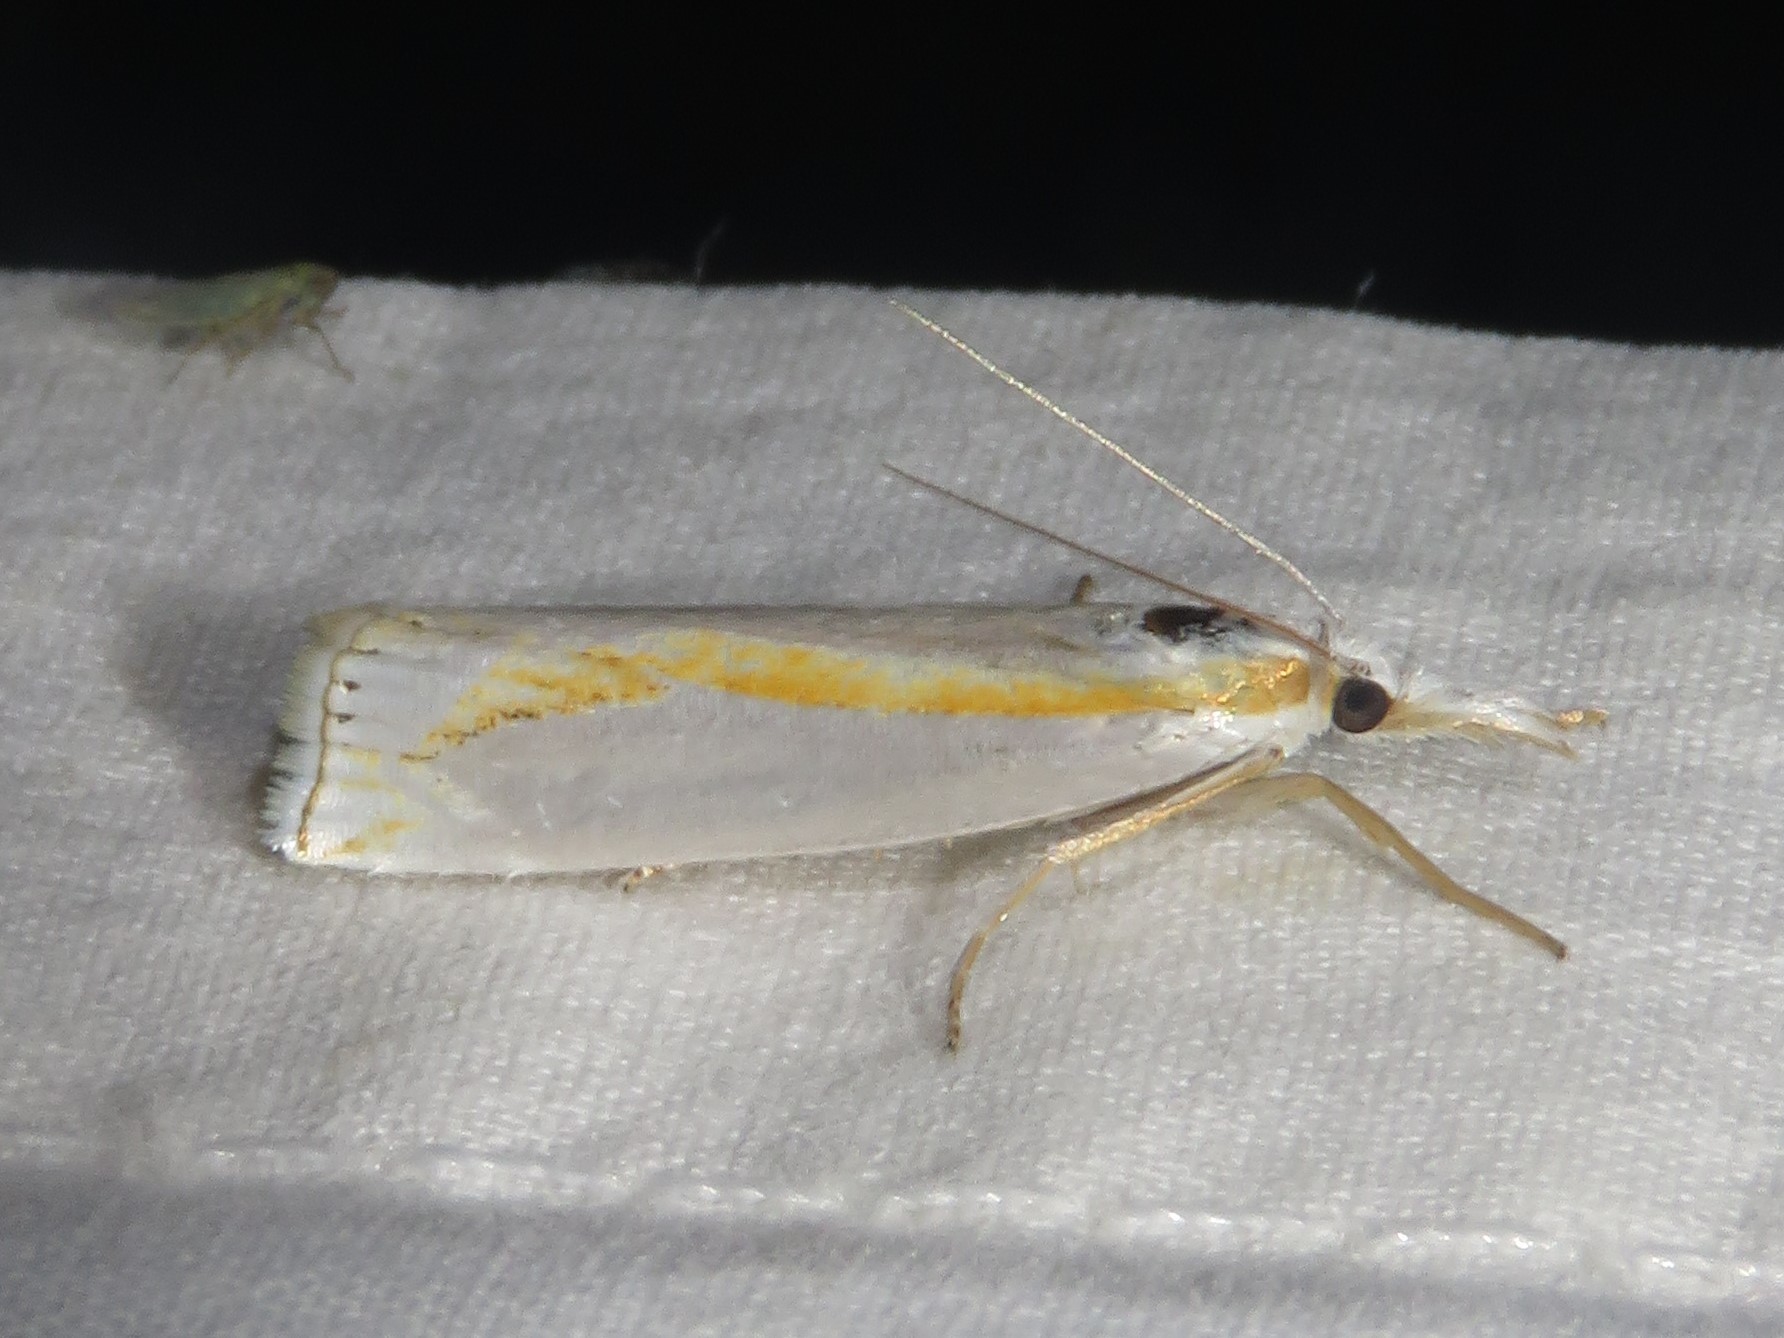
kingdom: Animalia
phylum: Arthropoda
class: Insecta
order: Lepidoptera
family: Crambidae
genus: Crambus
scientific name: Crambus girardellus
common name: Girard's grass-veneer
